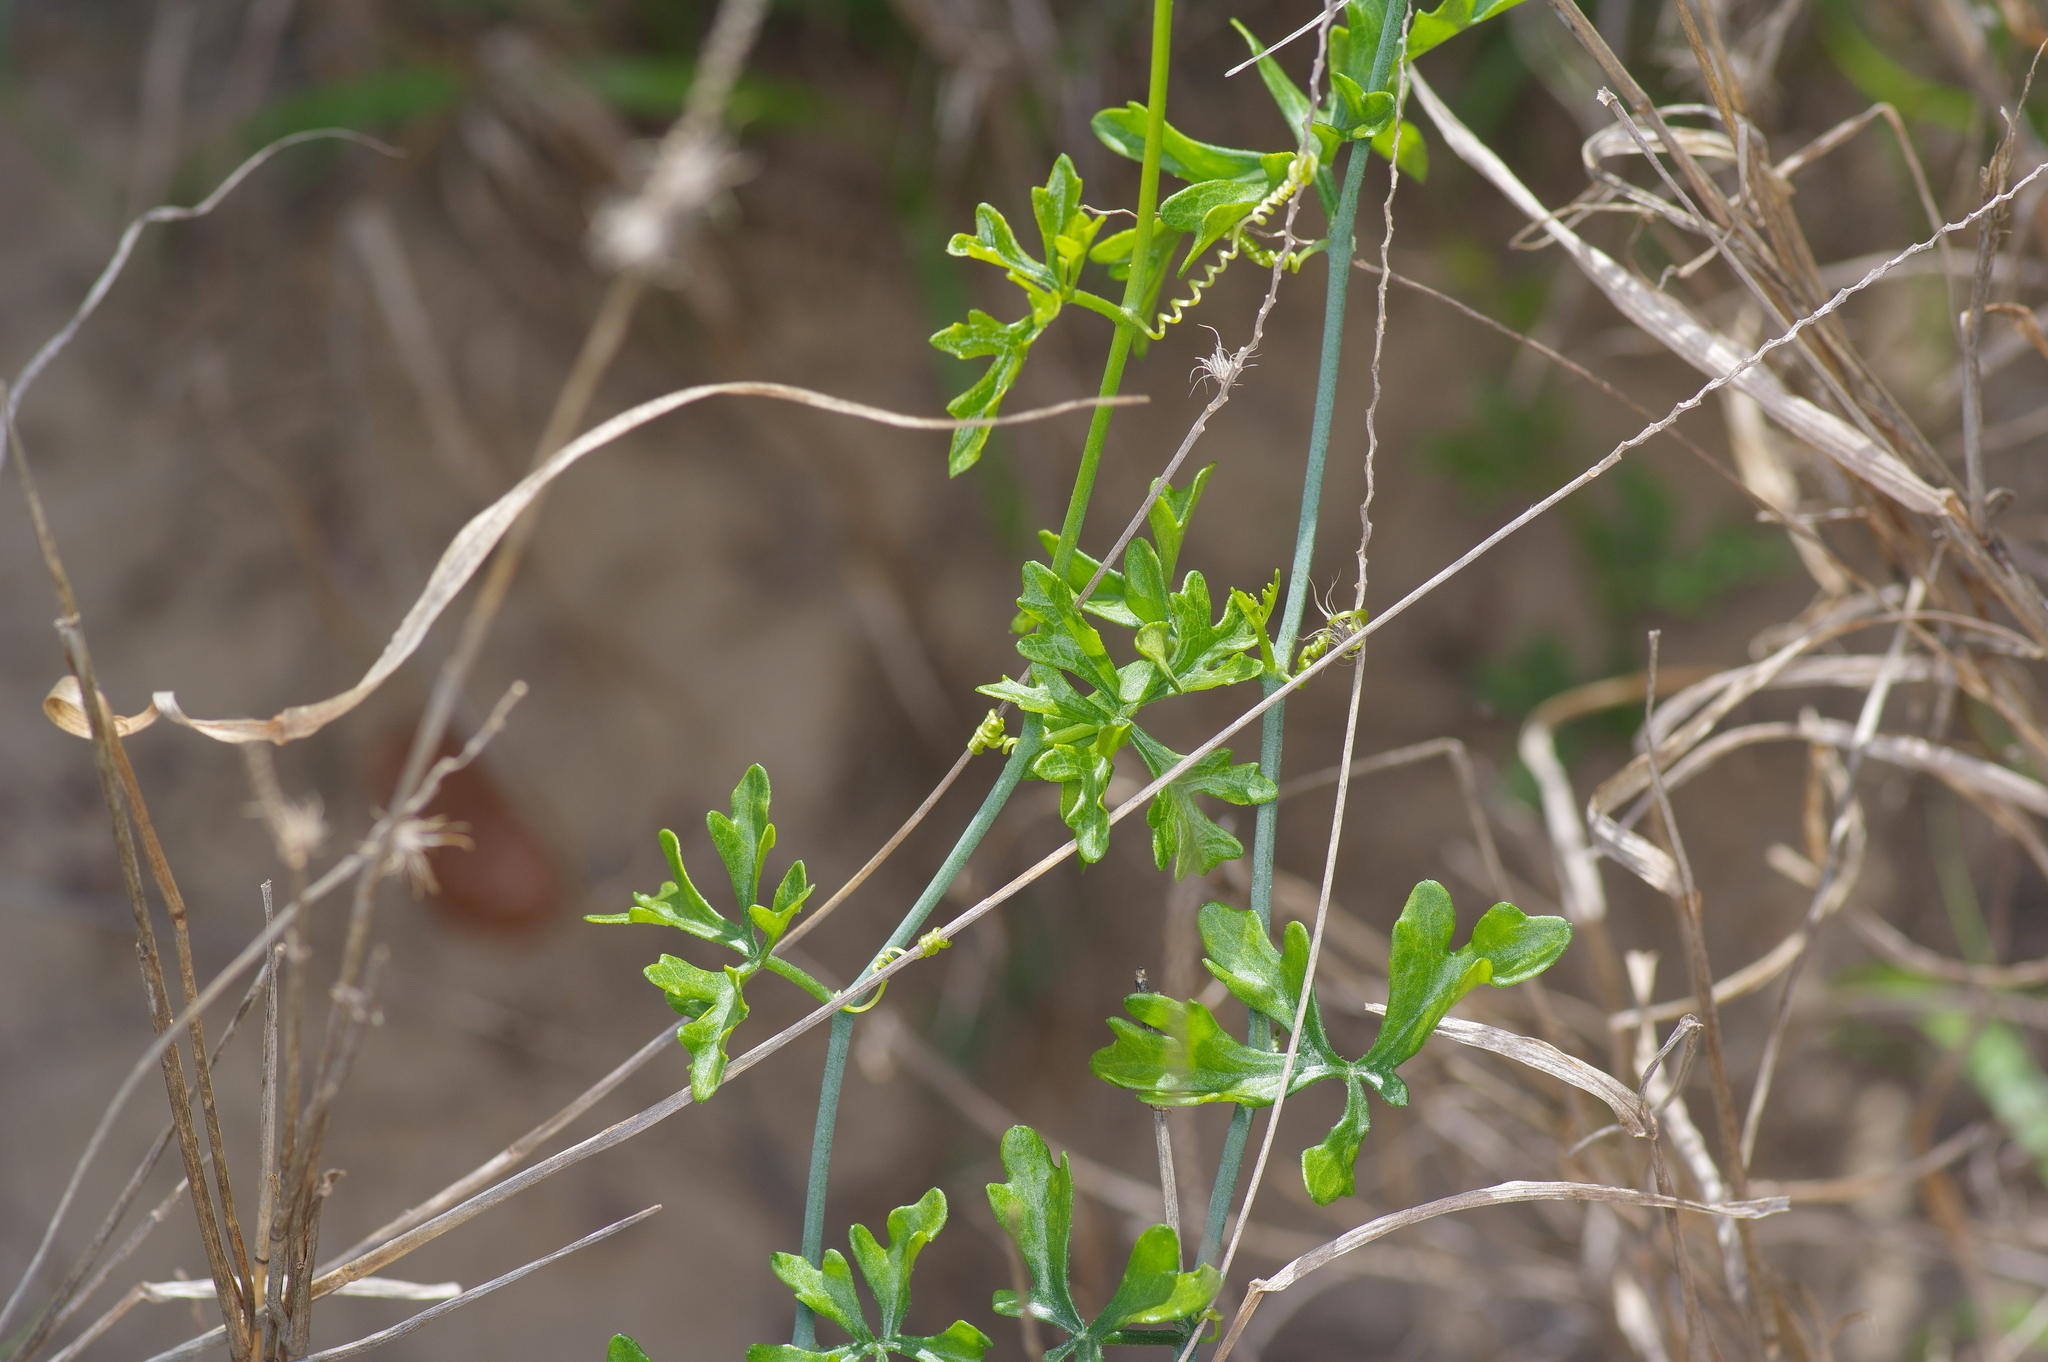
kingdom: Plantae
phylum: Tracheophyta
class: Magnoliopsida
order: Cucurbitales
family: Cucurbitaceae
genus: Ibervillea
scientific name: Ibervillea tenuisecta
